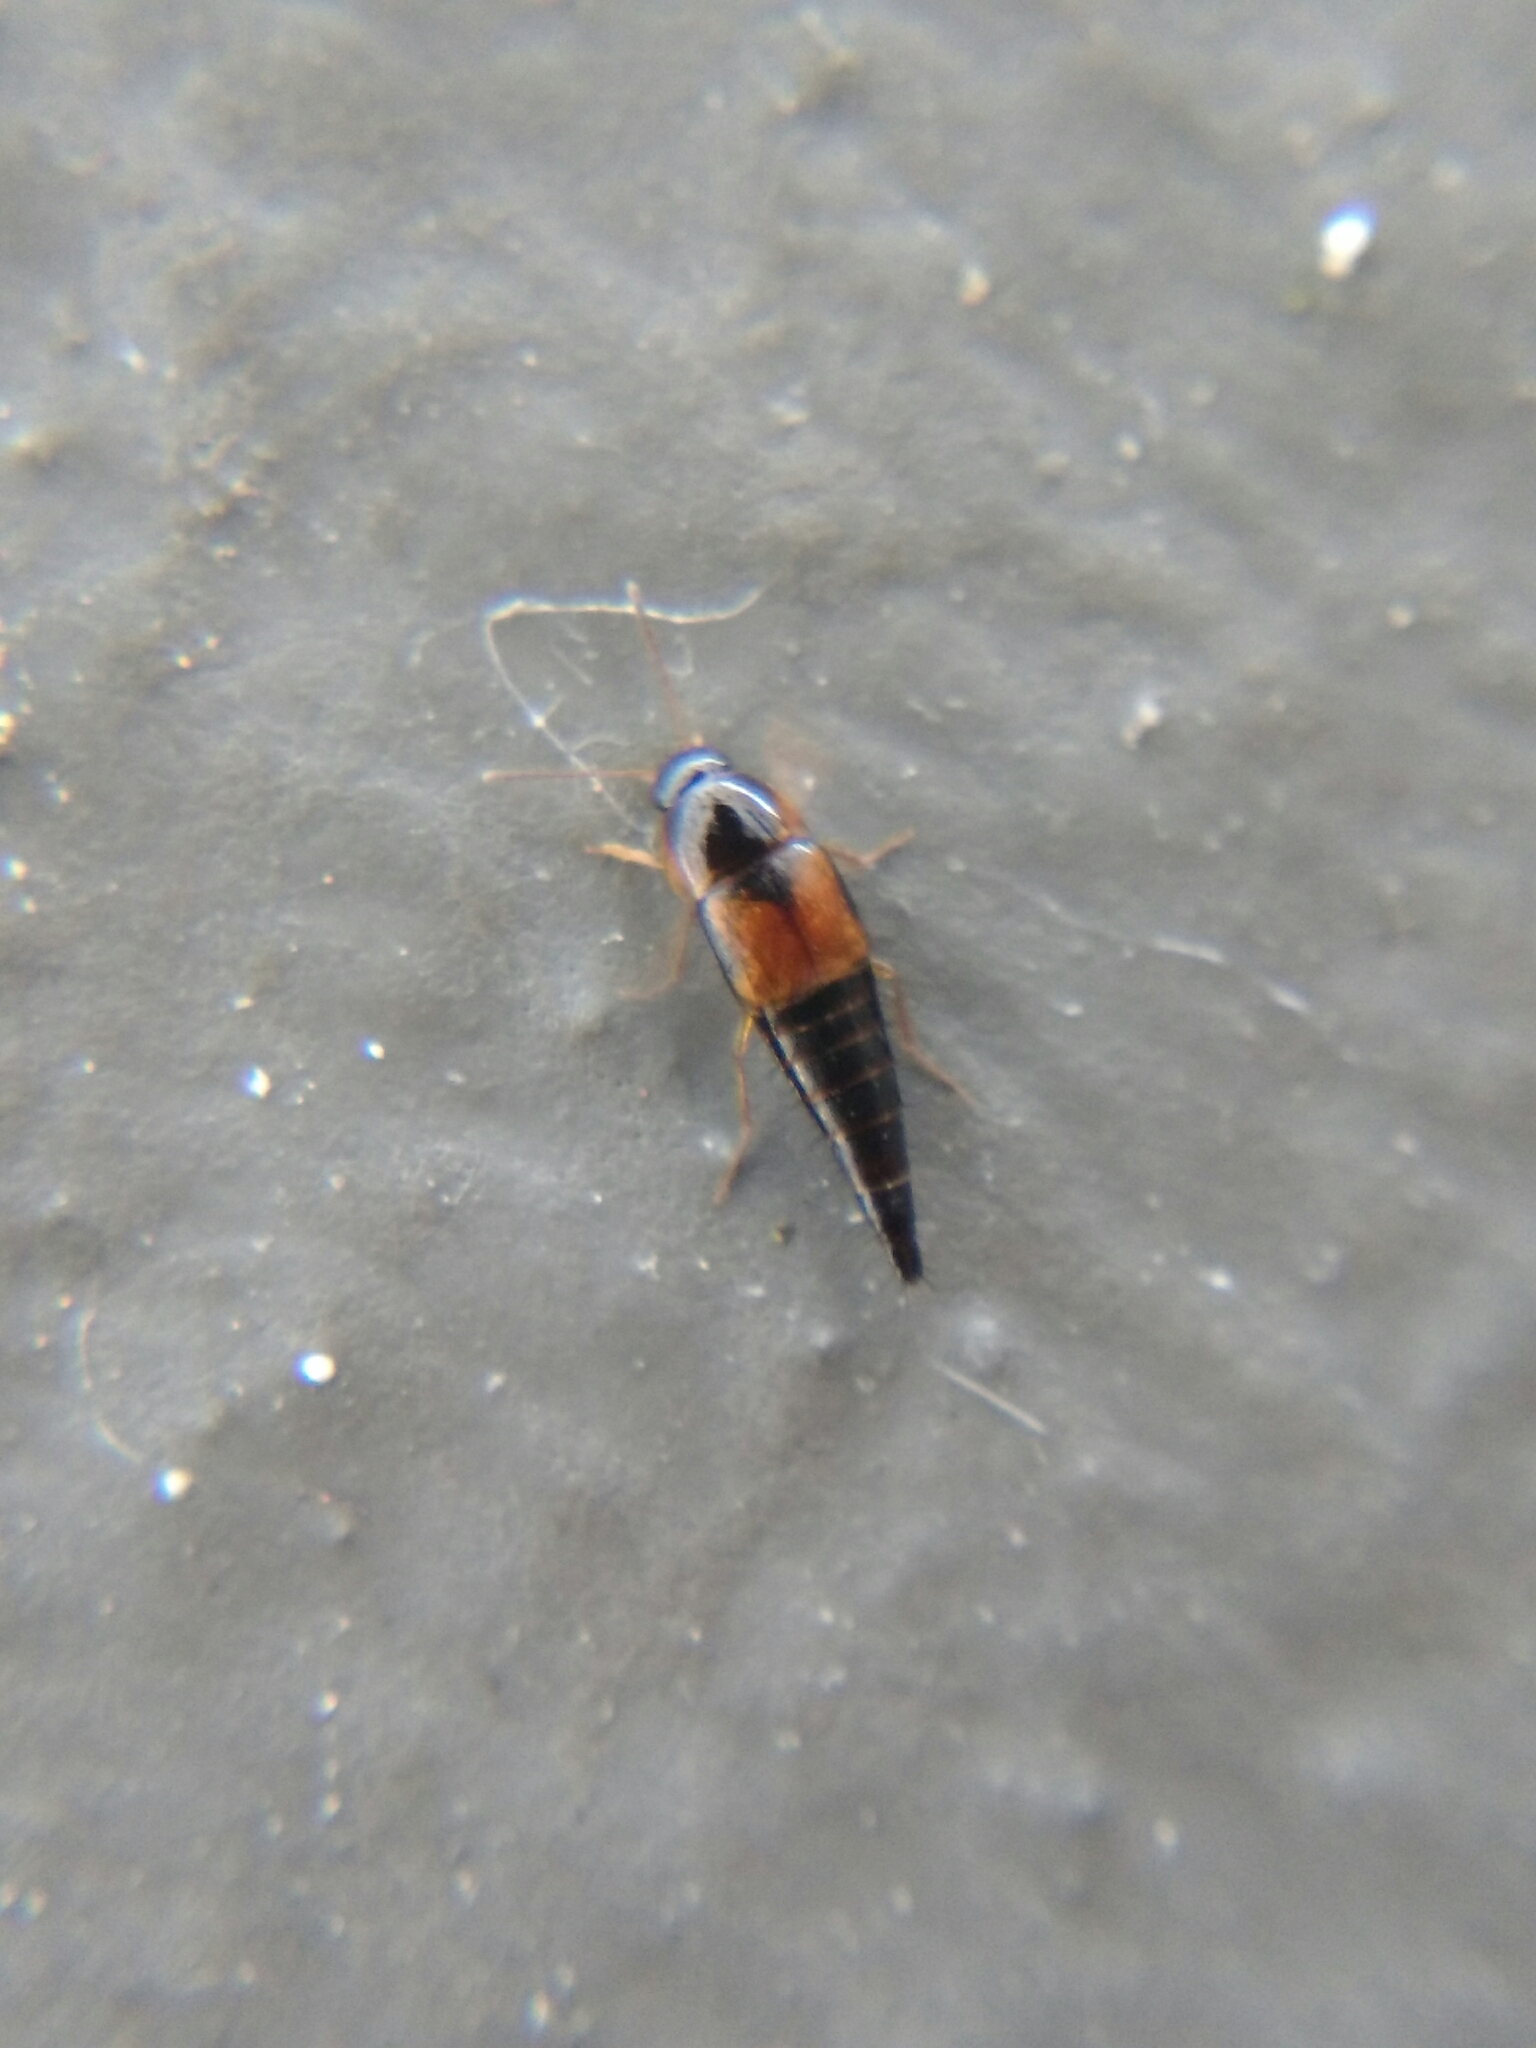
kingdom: Animalia
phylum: Arthropoda
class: Insecta
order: Coleoptera
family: Staphylinidae
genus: Tachyporus
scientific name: Tachyporus hypnorum
